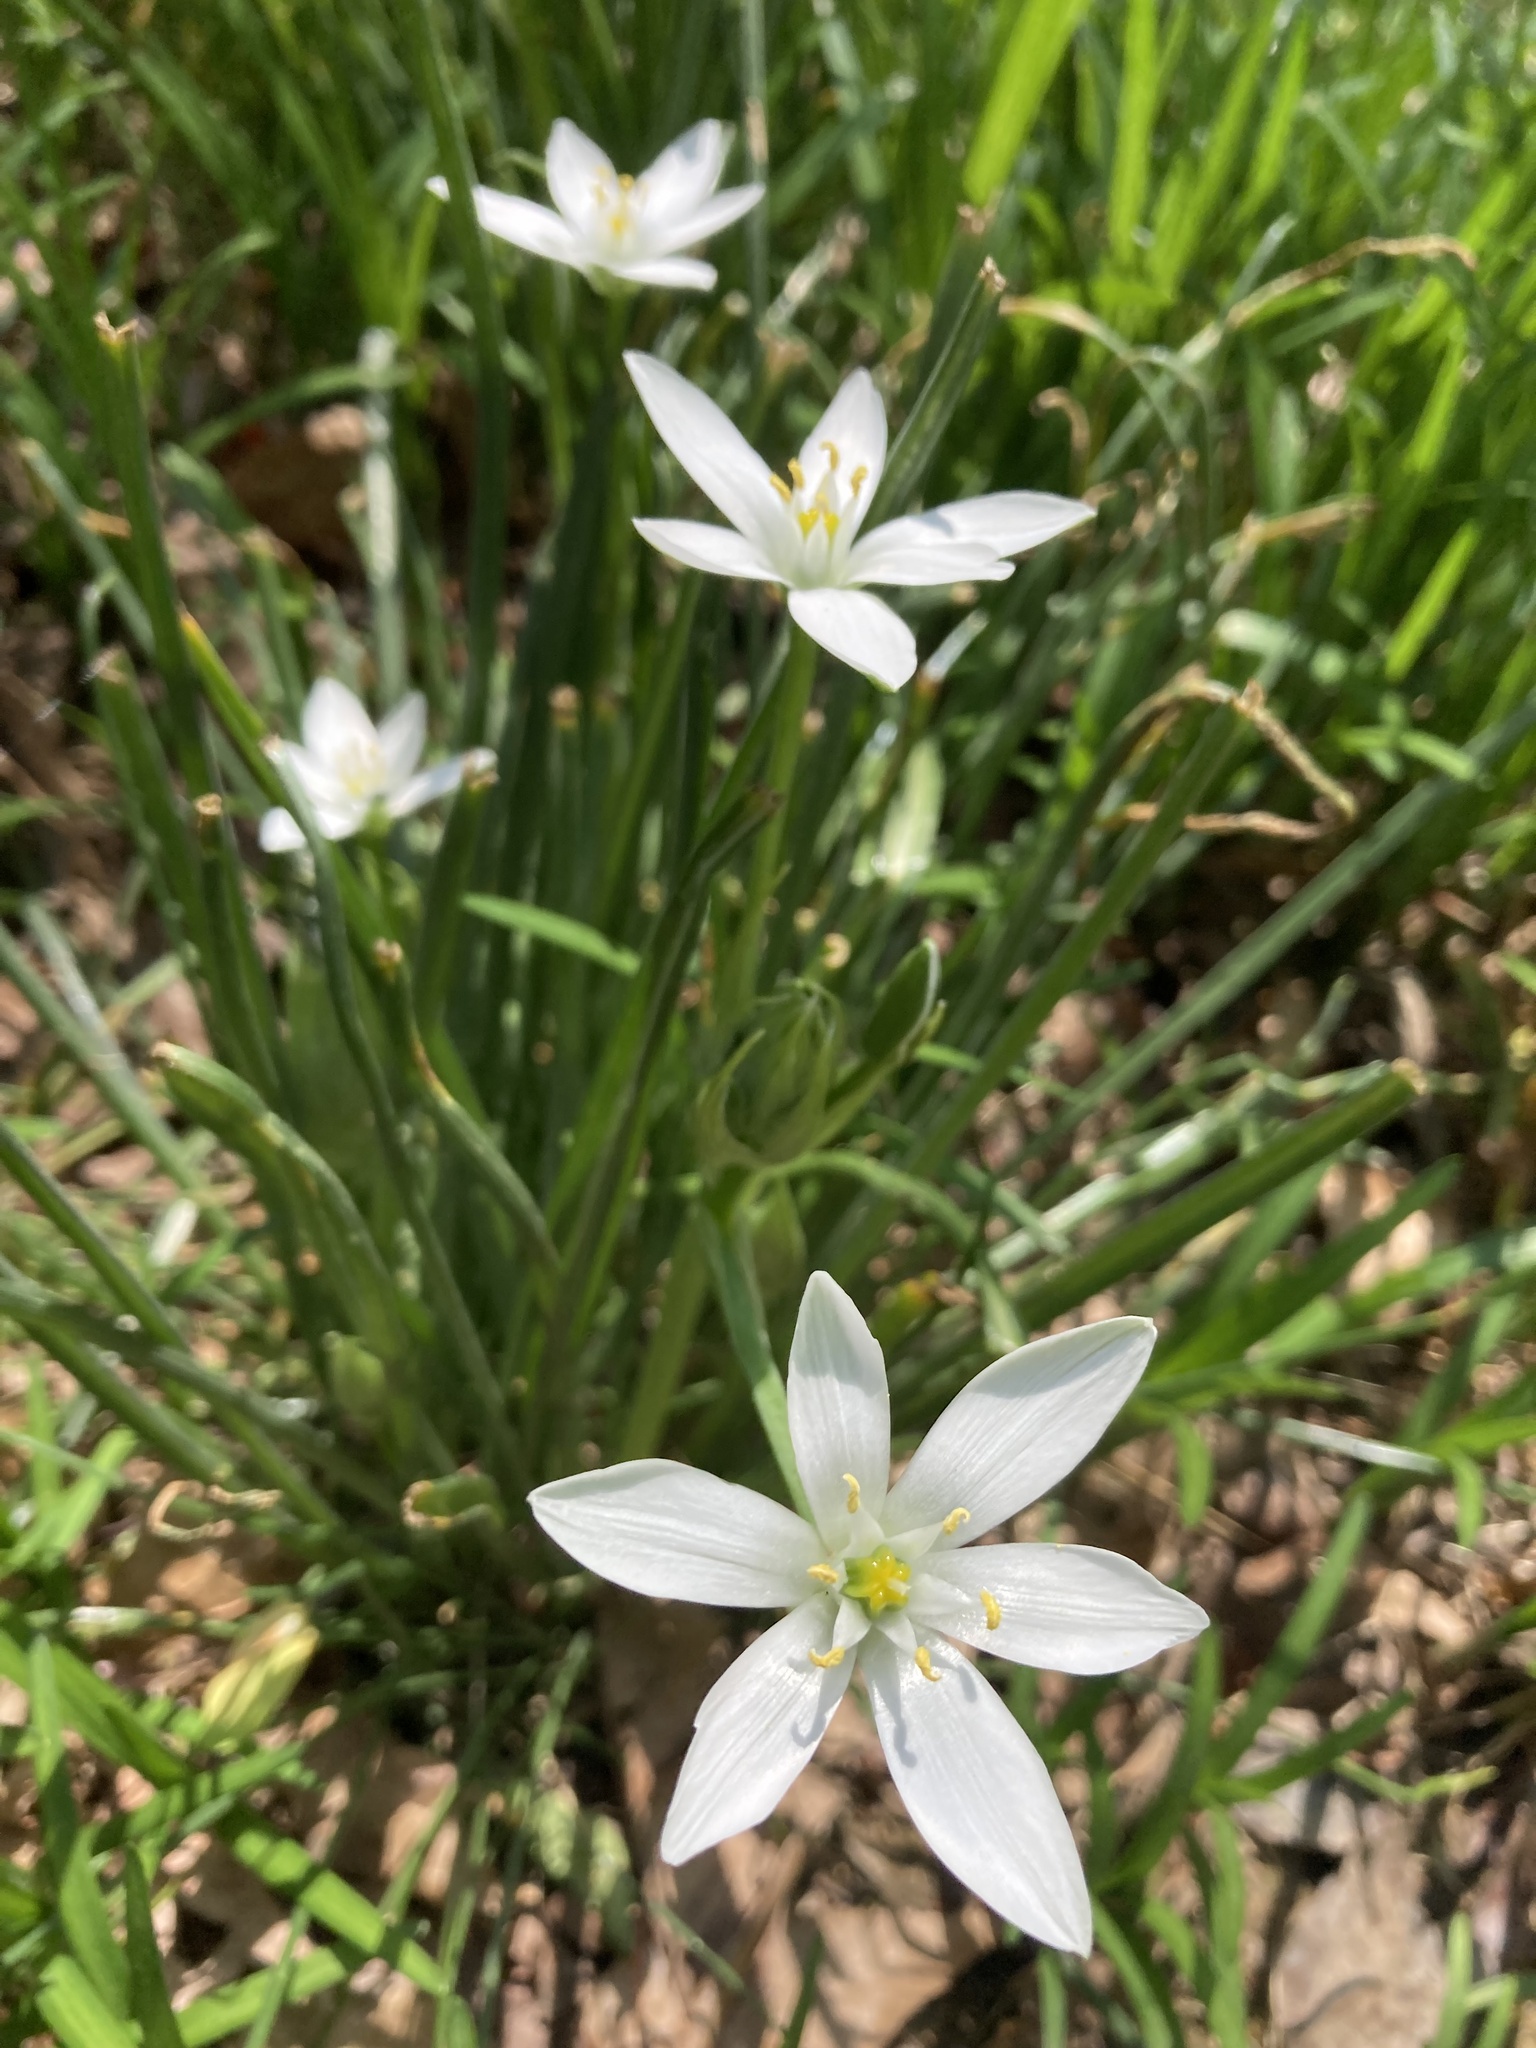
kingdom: Plantae
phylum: Tracheophyta
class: Liliopsida
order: Asparagales
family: Asparagaceae
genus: Ornithogalum
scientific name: Ornithogalum umbellatum
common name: Garden star-of-bethlehem
